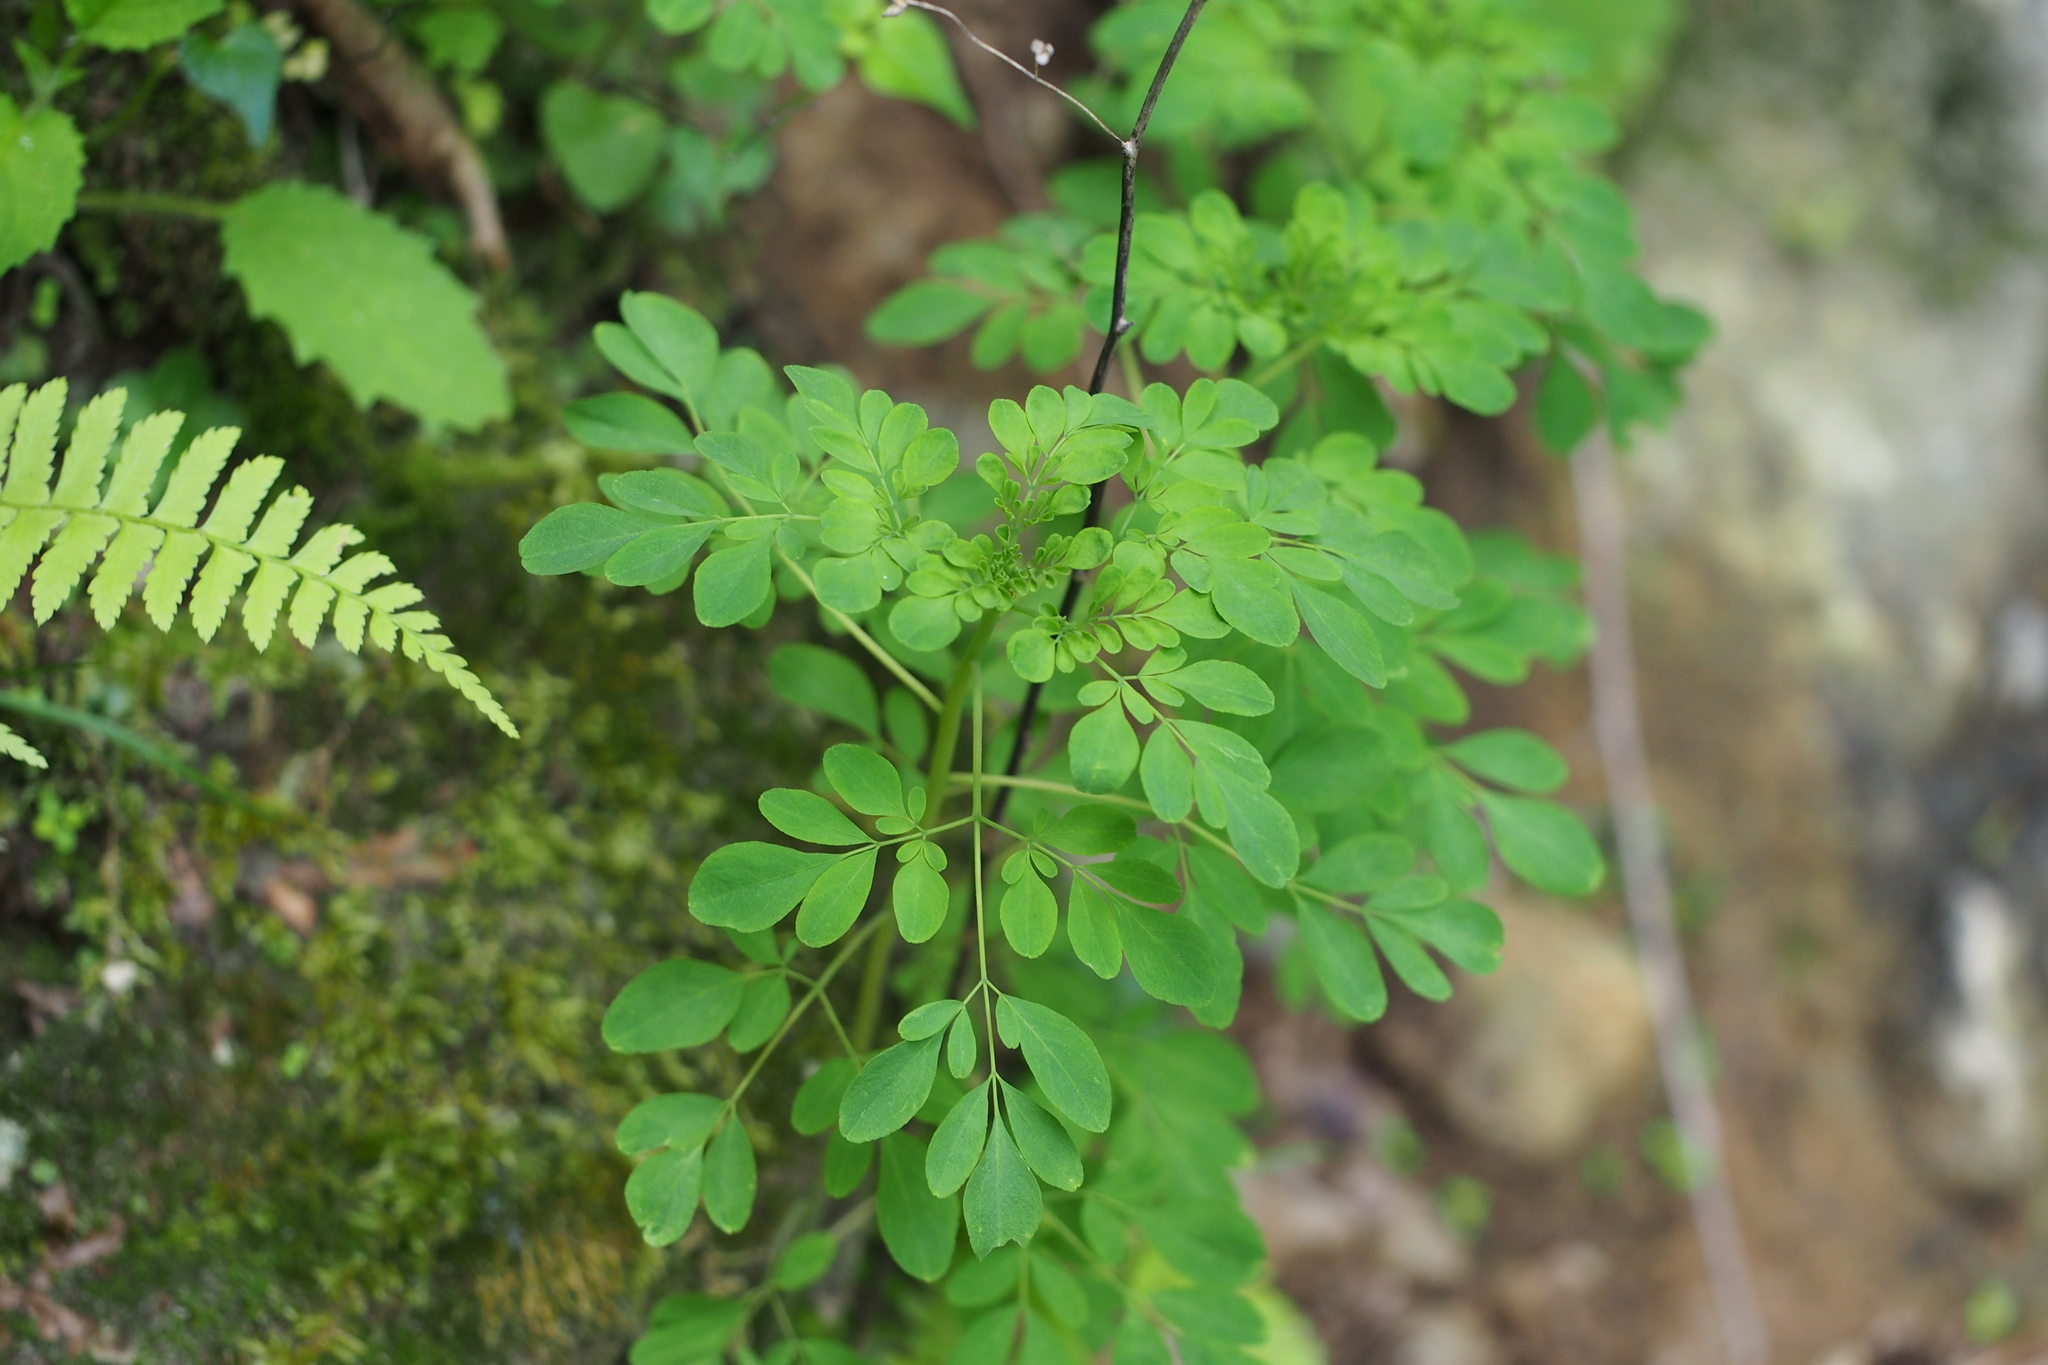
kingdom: Plantae
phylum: Tracheophyta
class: Magnoliopsida
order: Sapindales
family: Rutaceae
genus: Boenninghausenia
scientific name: Boenninghausenia albiflora
